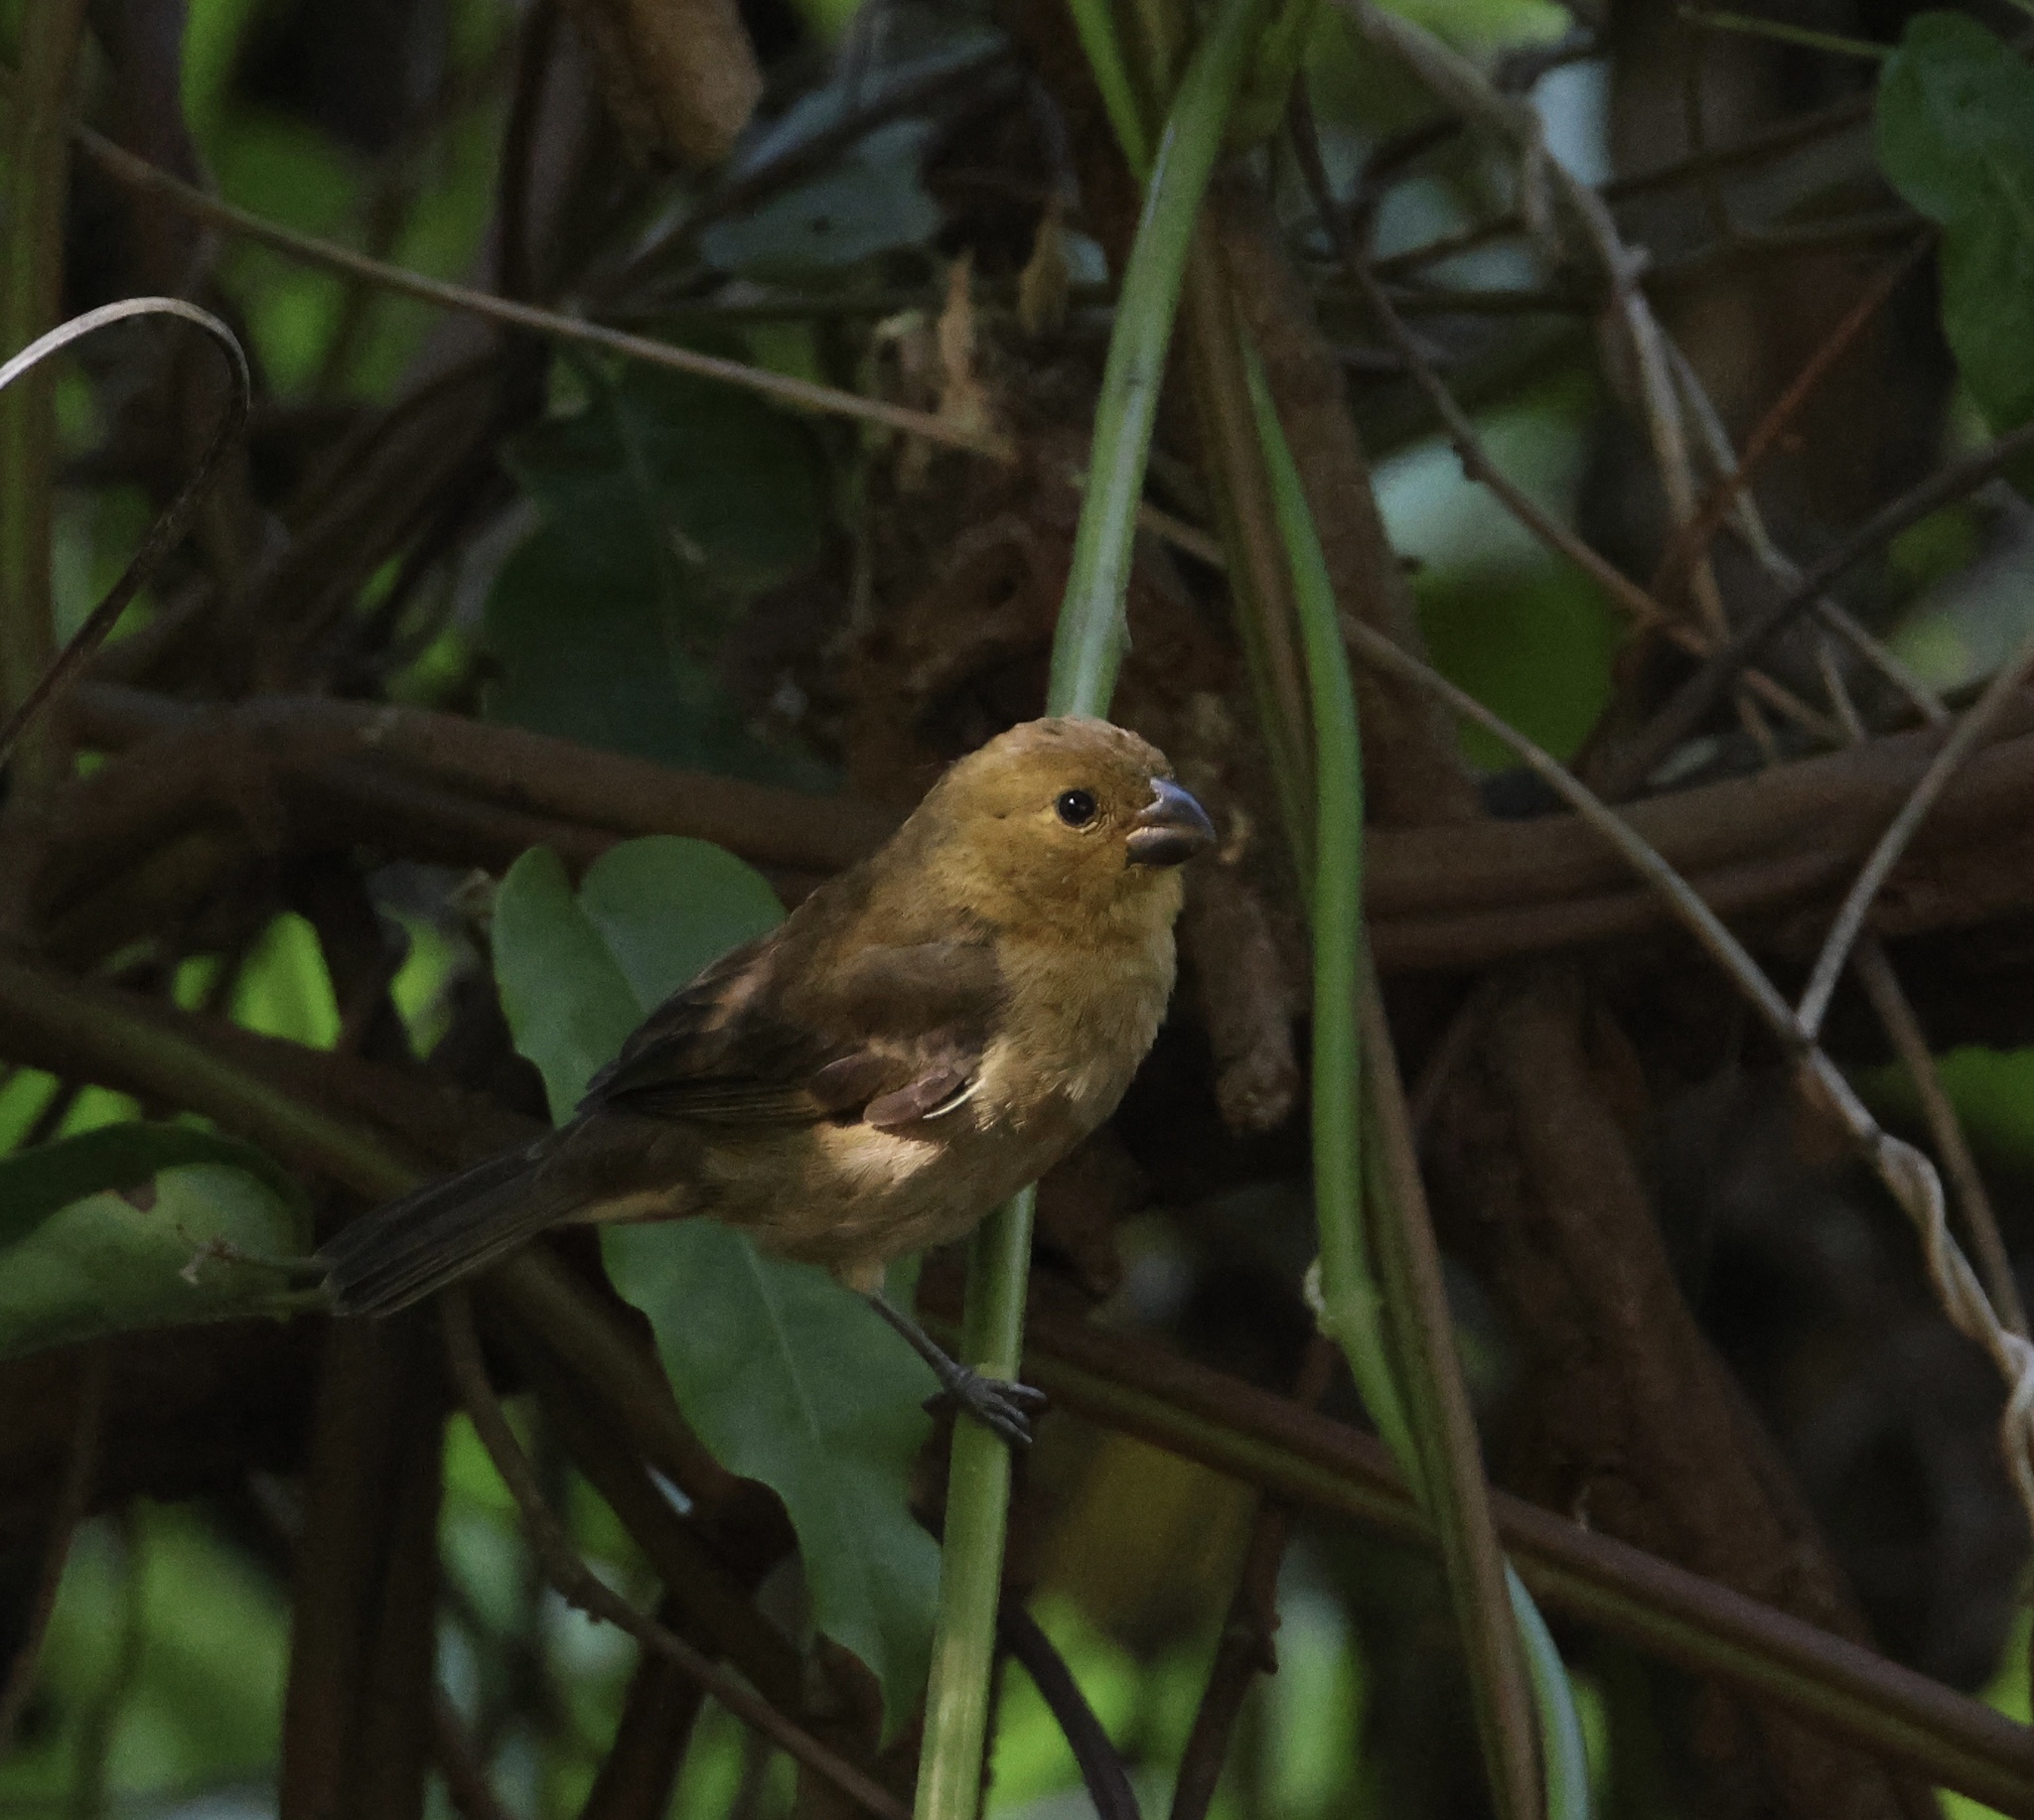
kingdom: Animalia
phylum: Chordata
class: Aves
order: Passeriformes
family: Thraupidae
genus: Sporophila
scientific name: Sporophila corvina
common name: Variable seedeater
